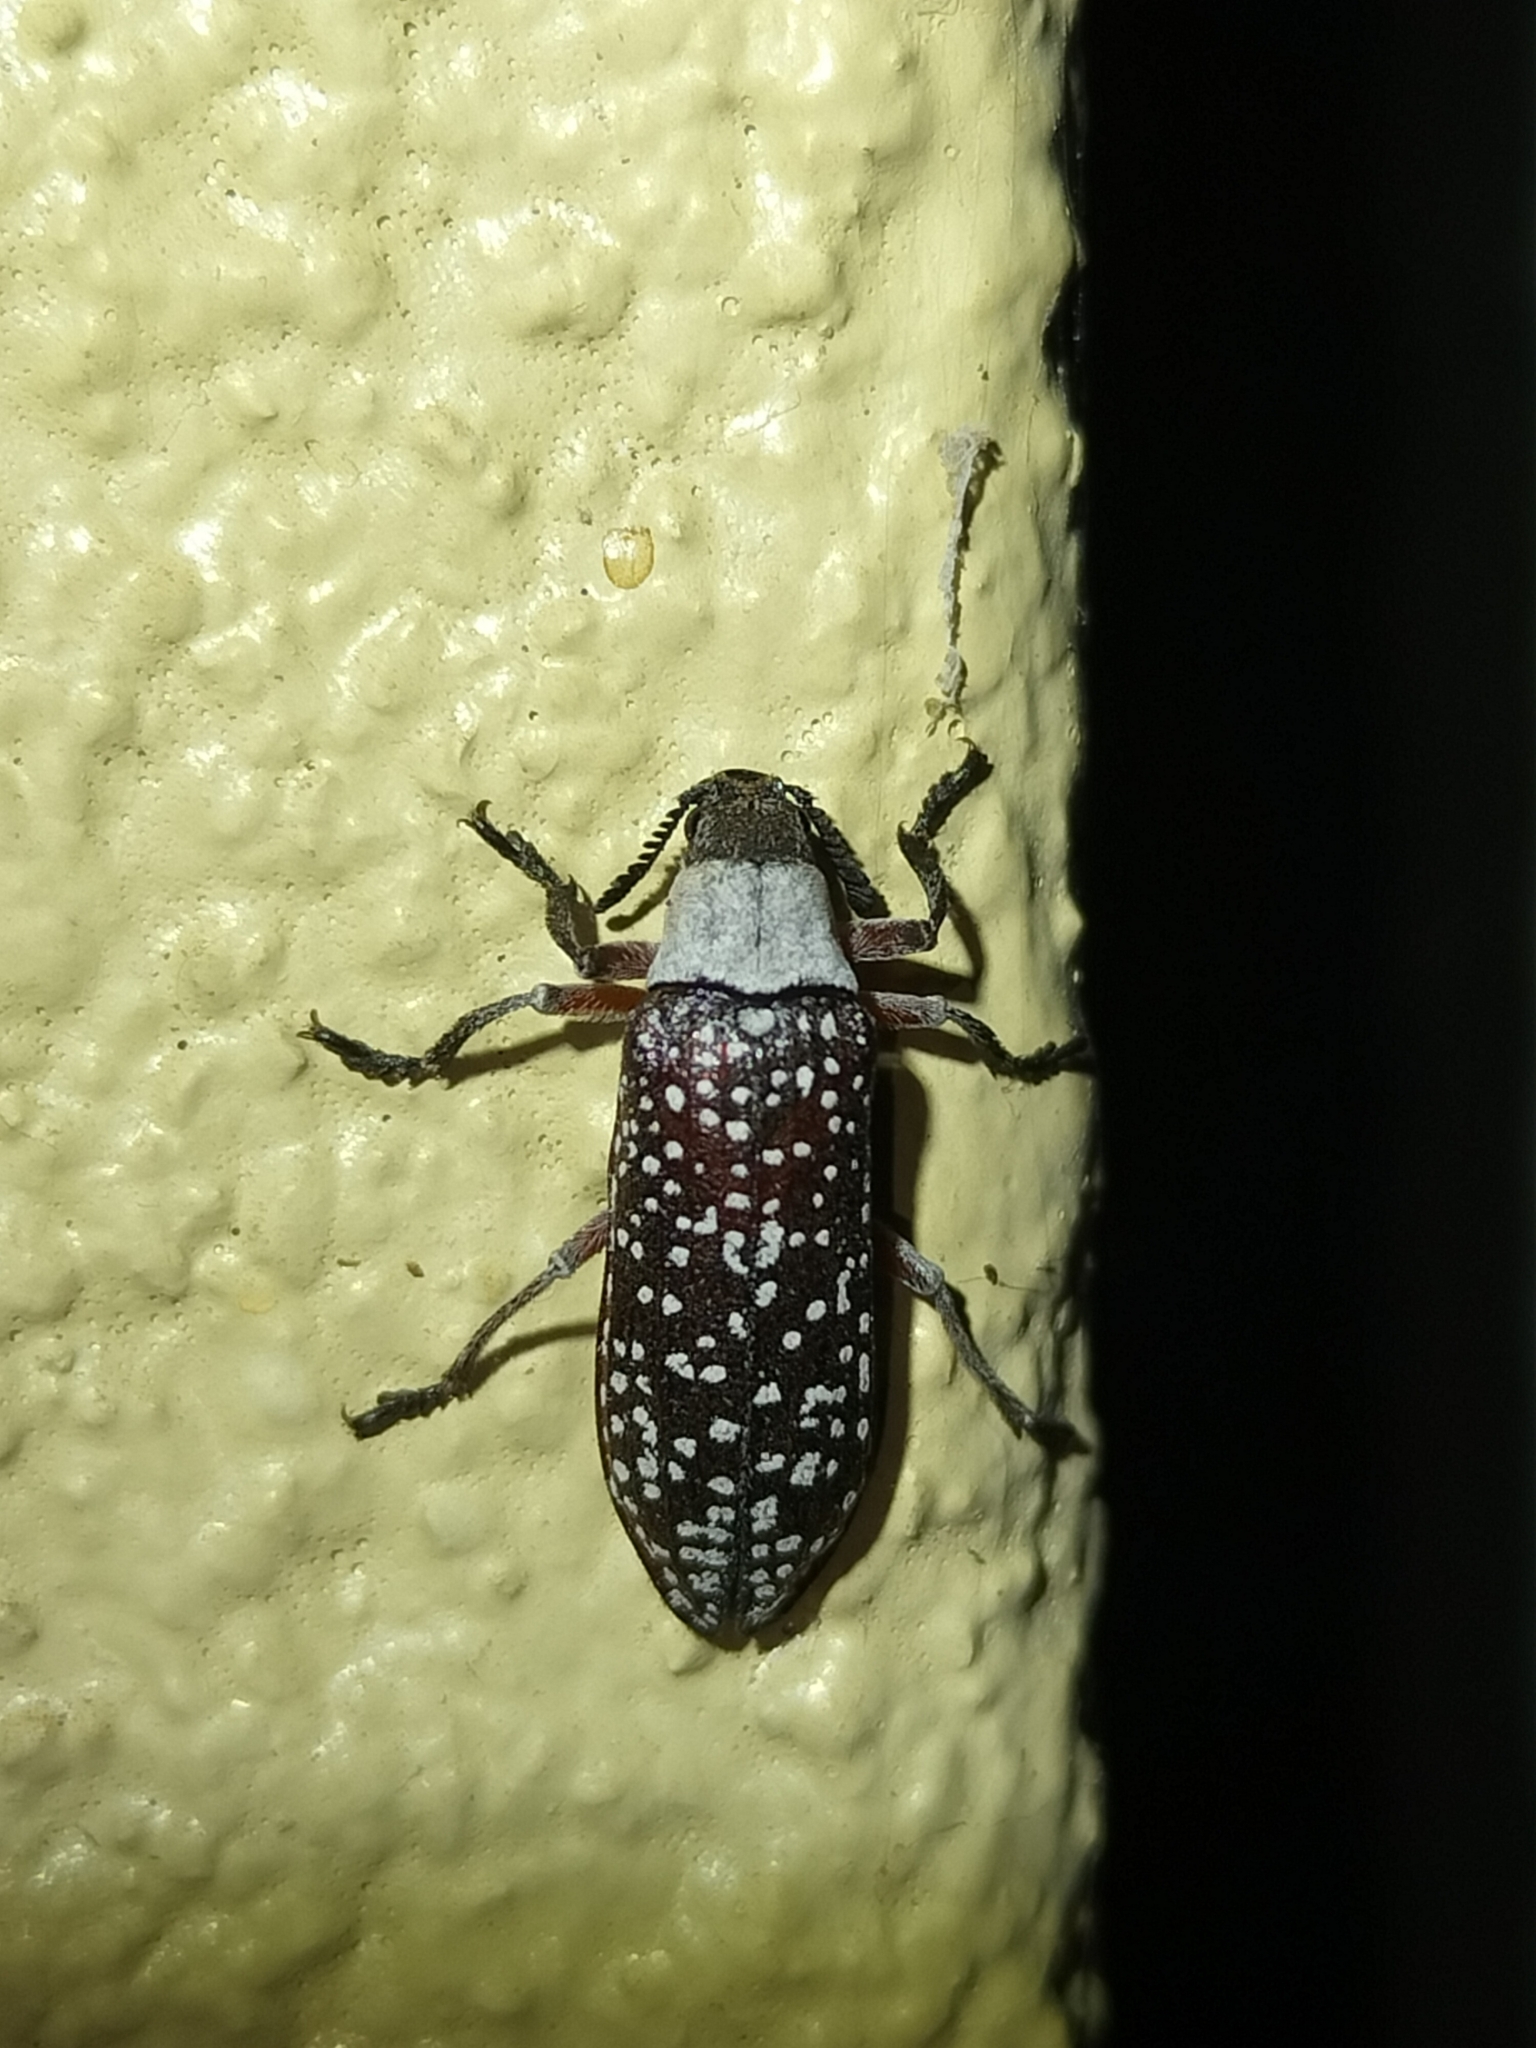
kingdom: Animalia
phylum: Arthropoda
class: Insecta
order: Coleoptera
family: Rhipiceridae
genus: Rhipicera
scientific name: Rhipicera mystacina
